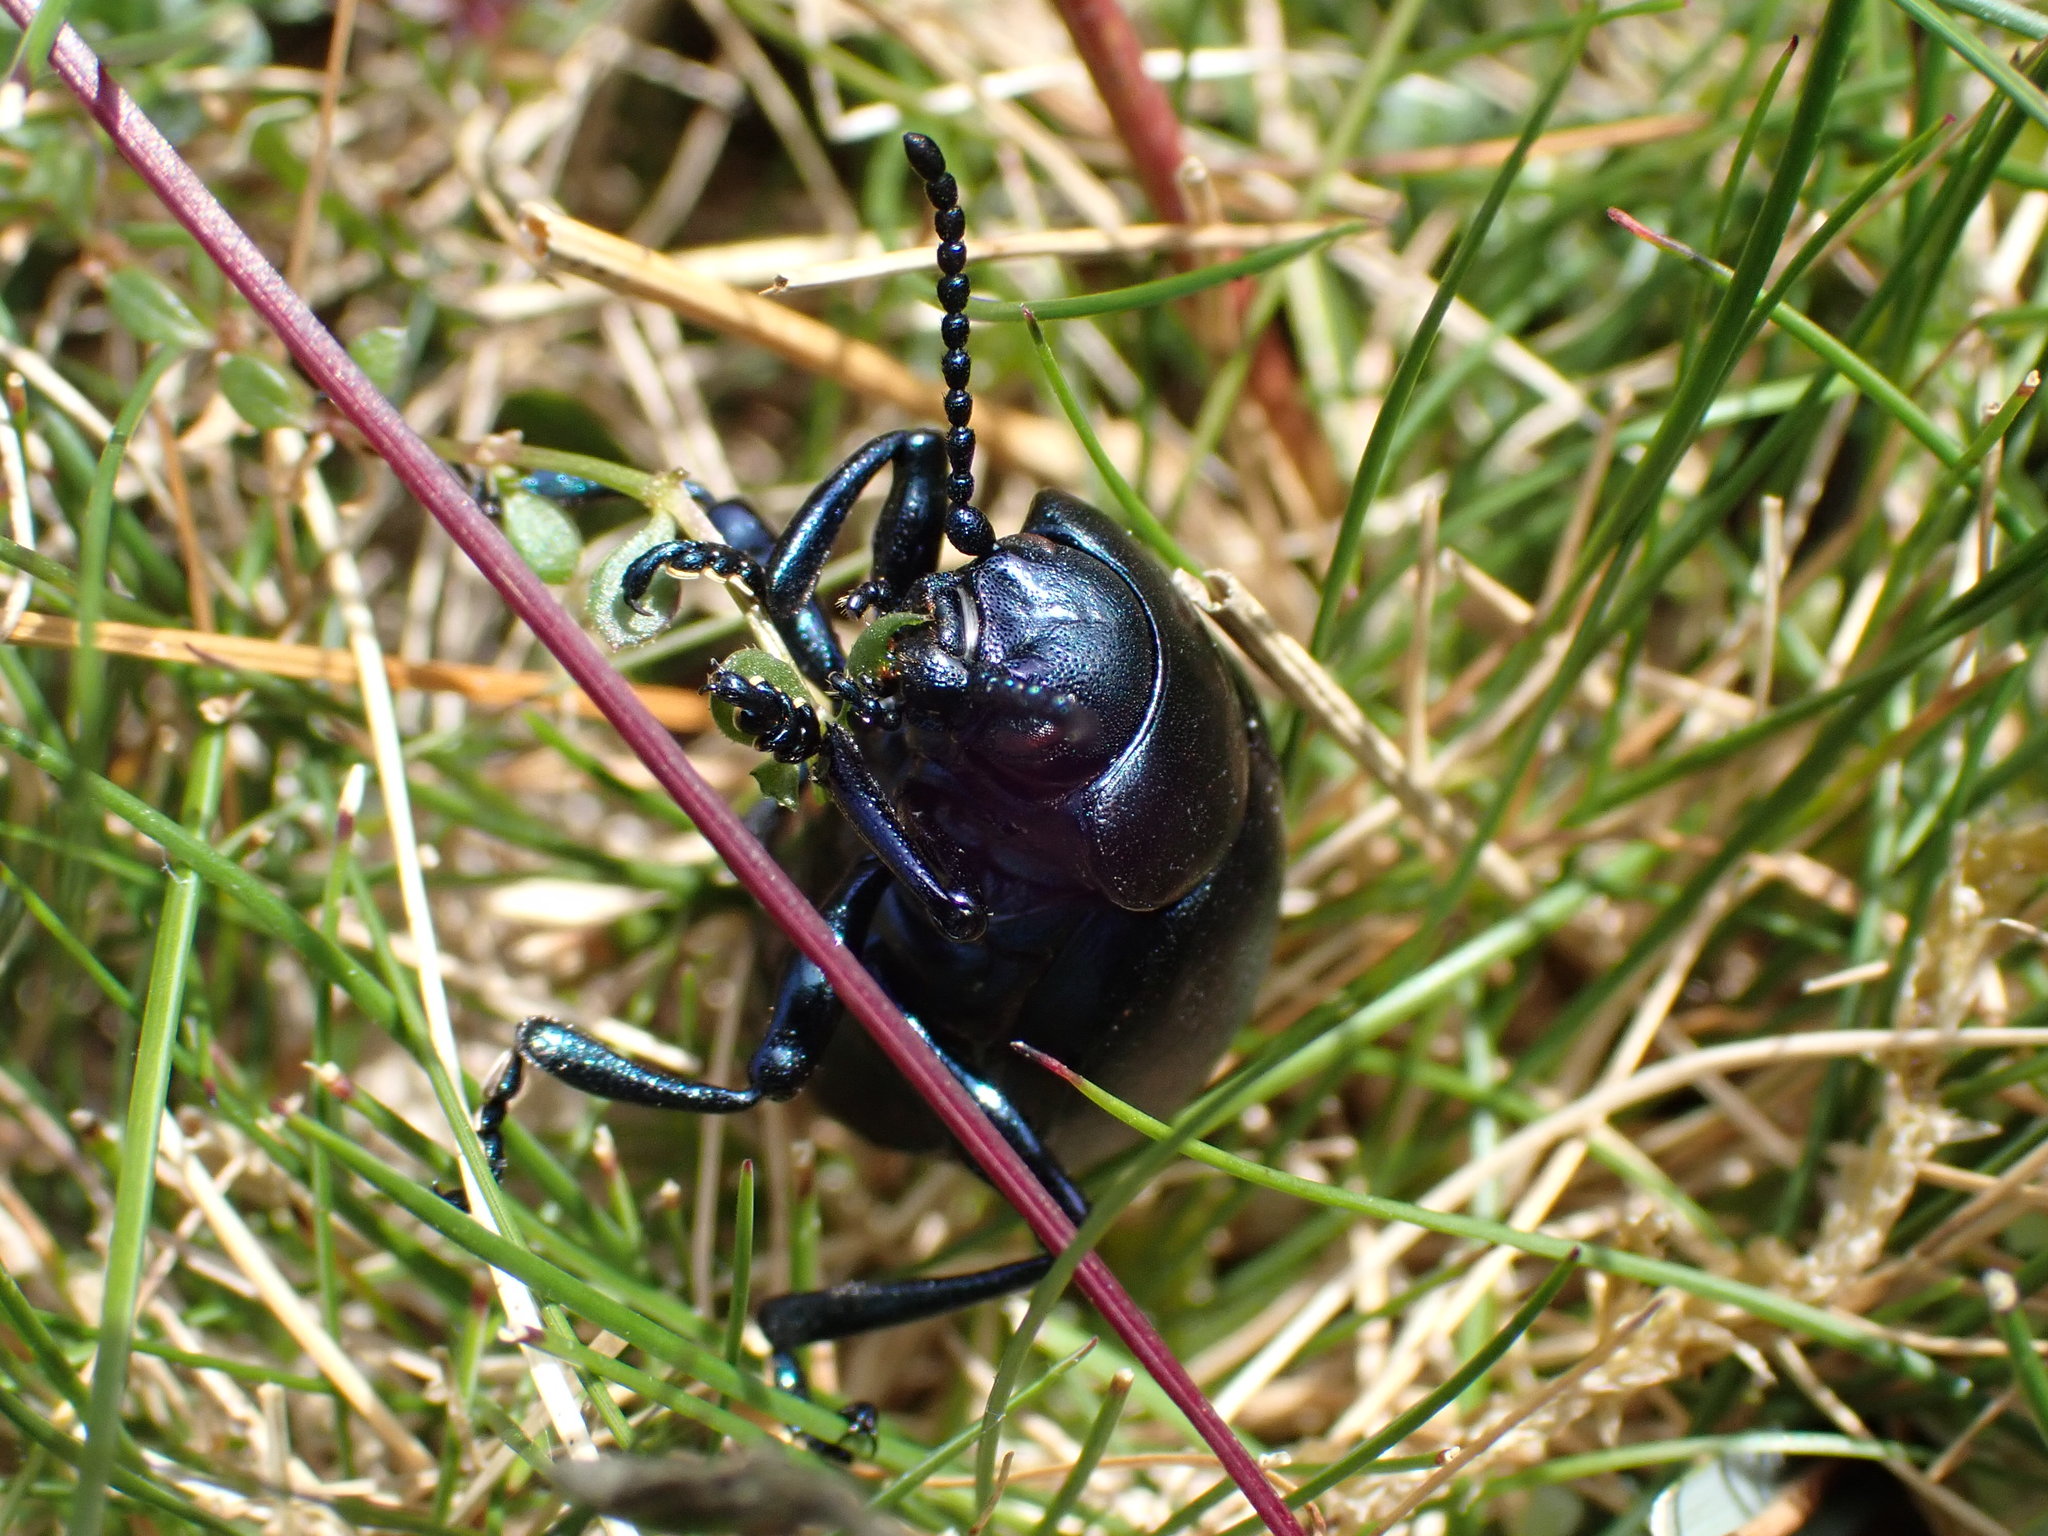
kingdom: Animalia
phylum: Arthropoda
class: Insecta
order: Coleoptera
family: Chrysomelidae
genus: Timarcha
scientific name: Timarcha tenebricosa
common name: Bloody-nosed beetle
